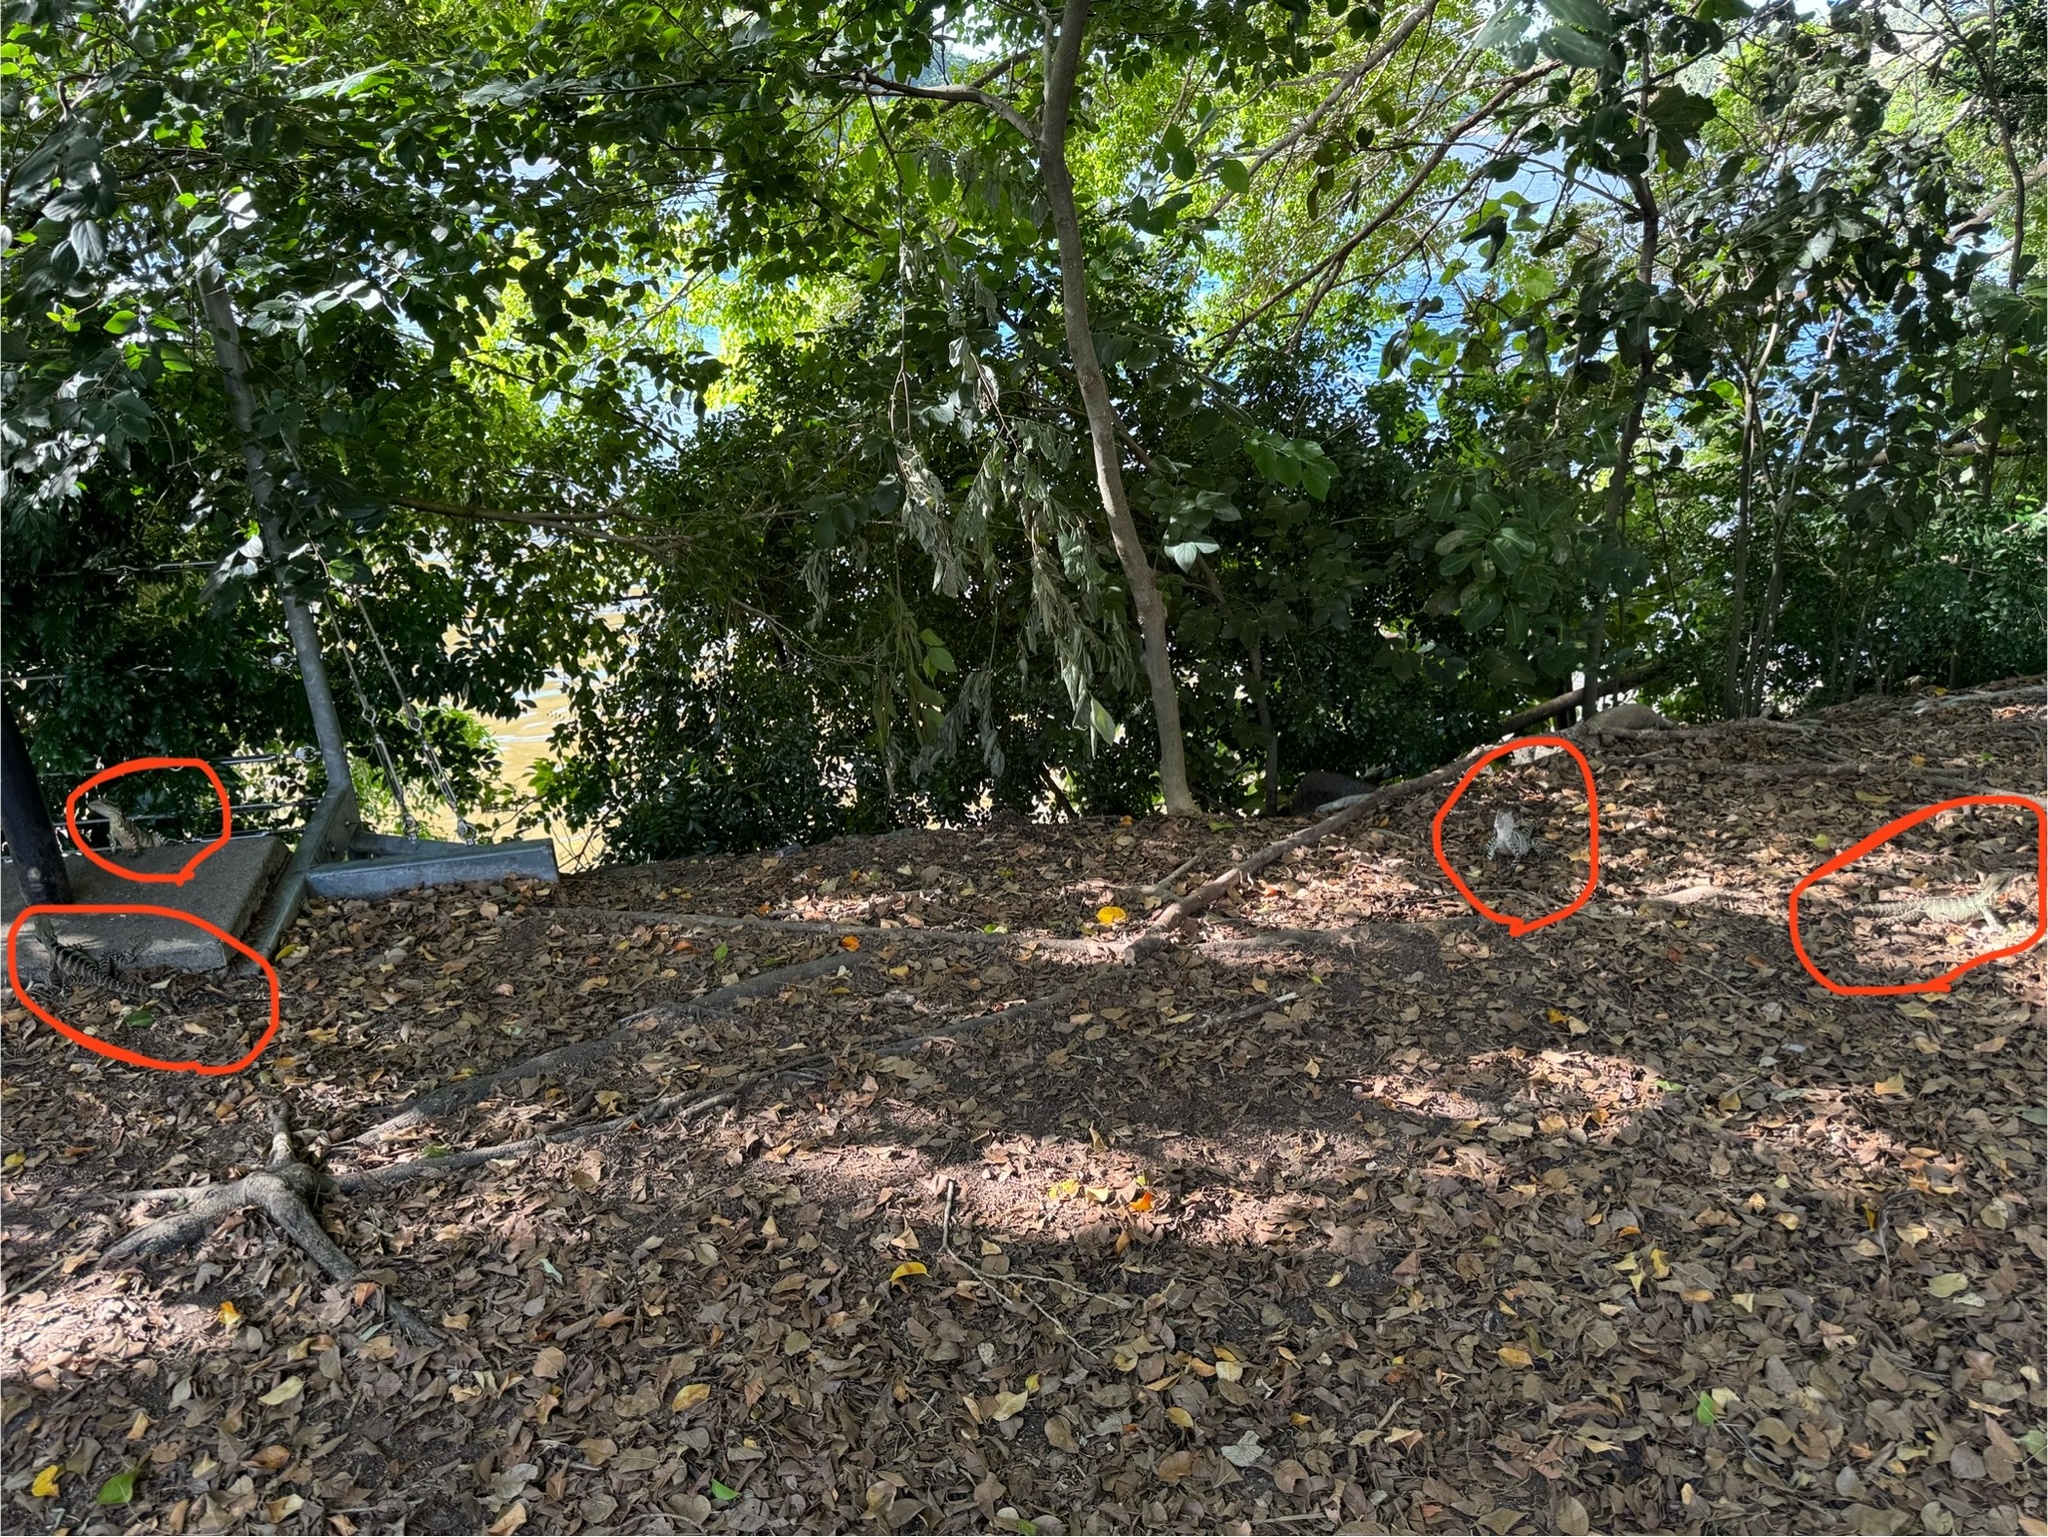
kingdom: Animalia
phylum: Chordata
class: Squamata
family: Agamidae
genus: Intellagama
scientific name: Intellagama lesueurii
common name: Eastern water dragon
